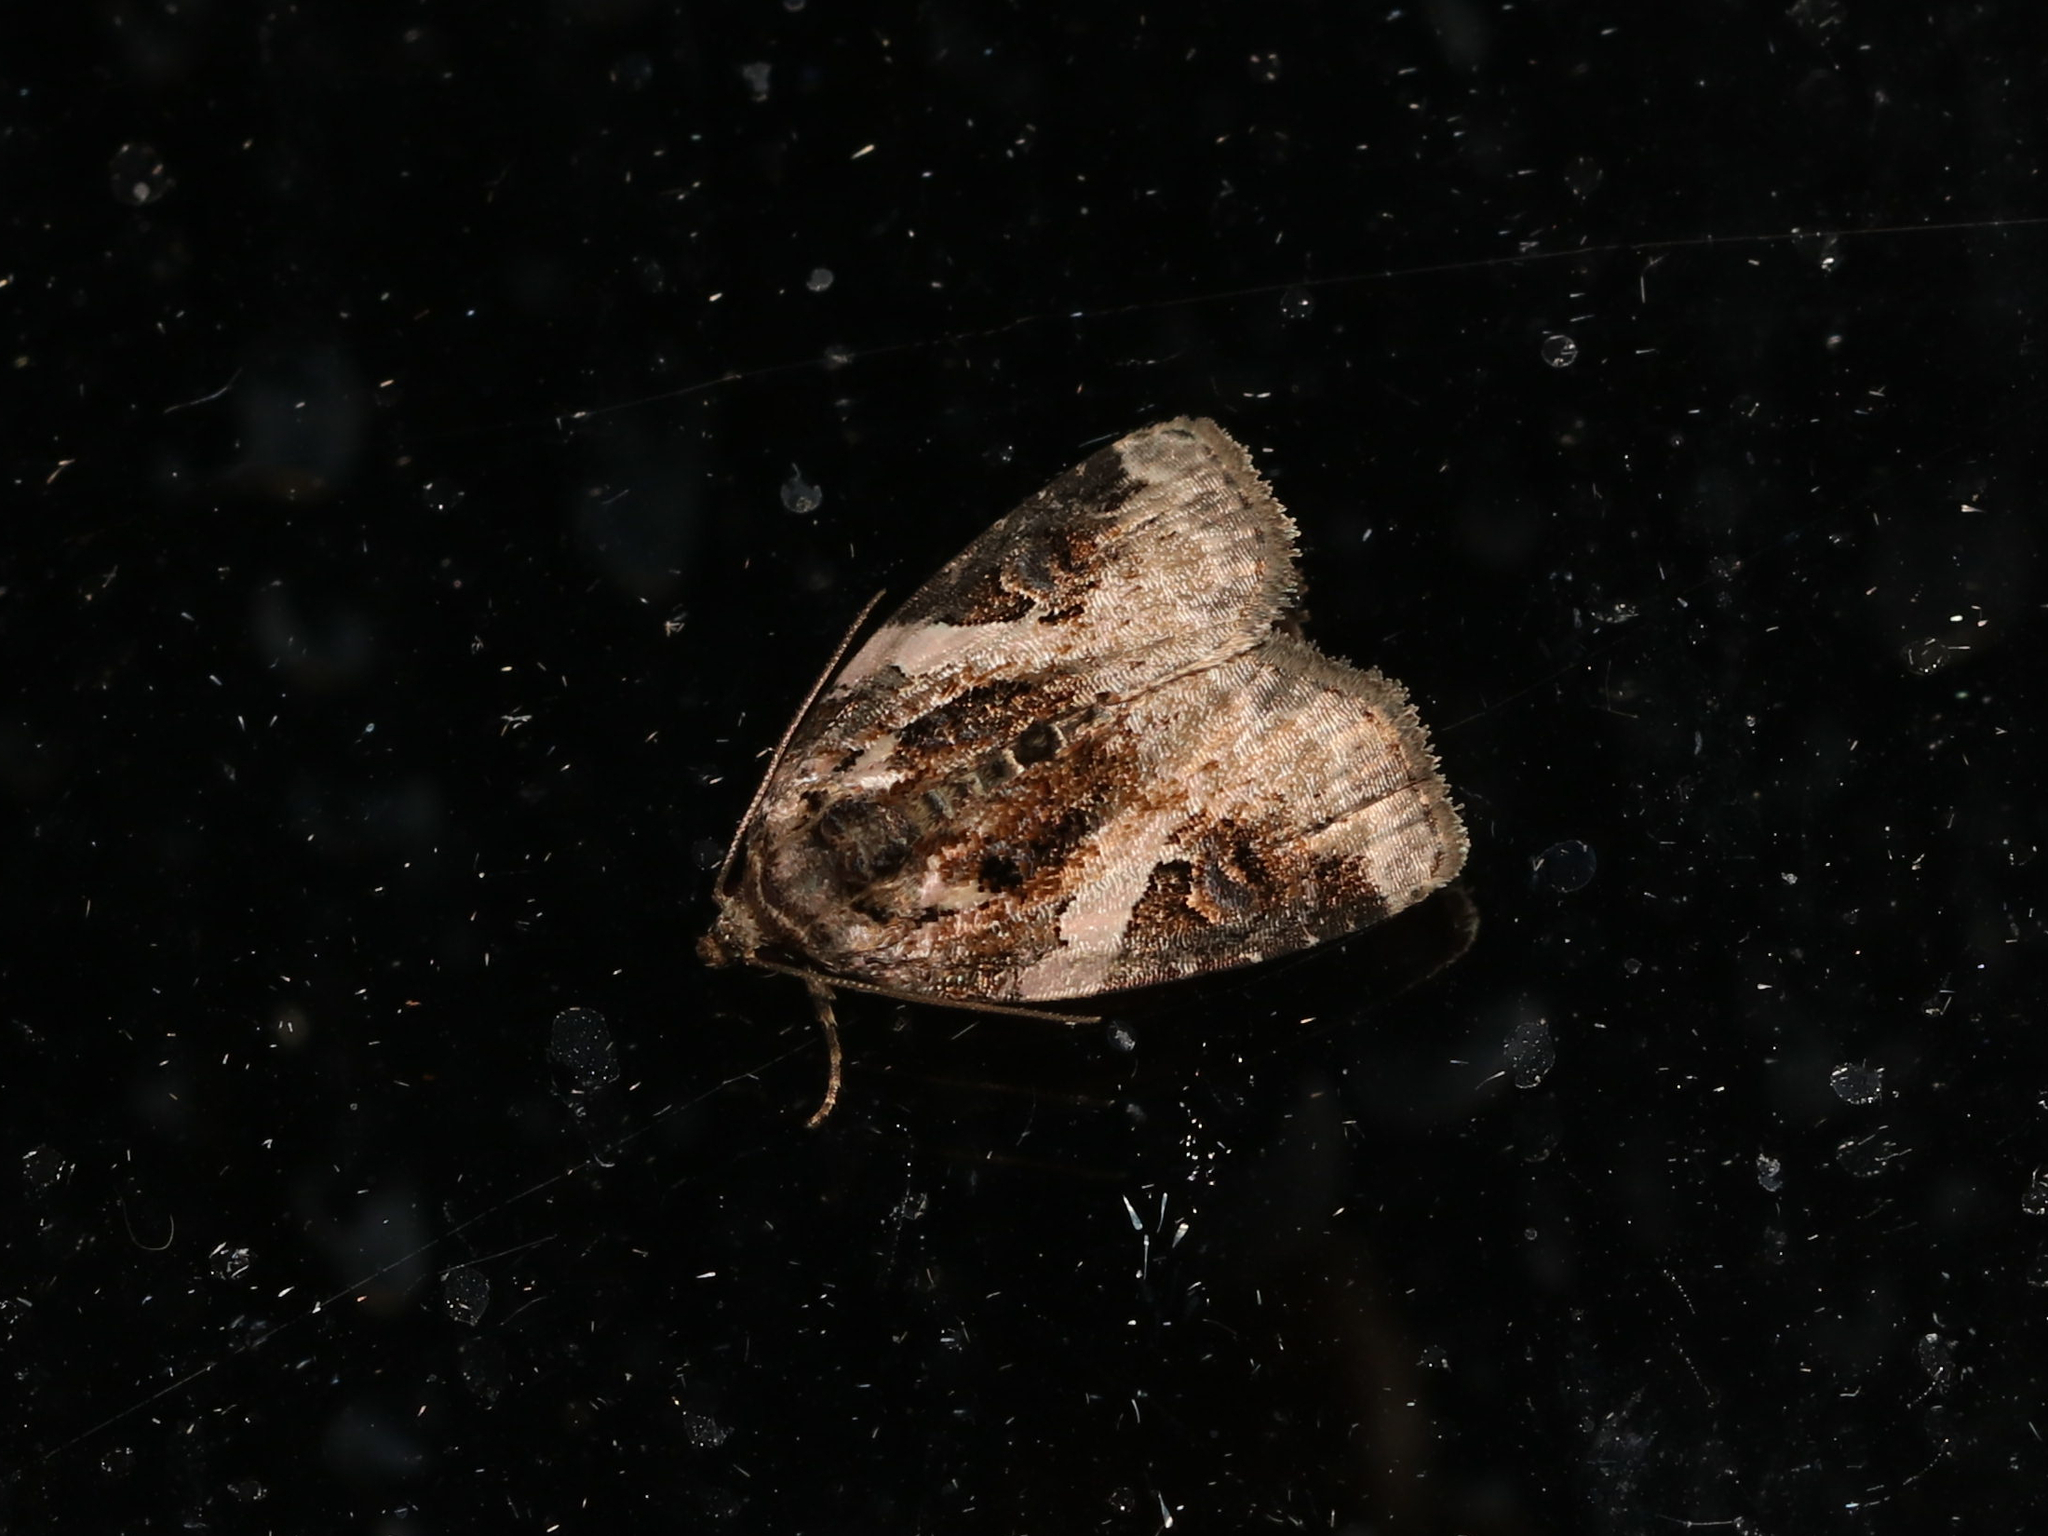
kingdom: Animalia
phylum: Arthropoda
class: Insecta
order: Lepidoptera
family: Noctuidae
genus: Pseudeustrotia
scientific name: Pseudeustrotia carneola
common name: Pink-barred lithacodia moth
